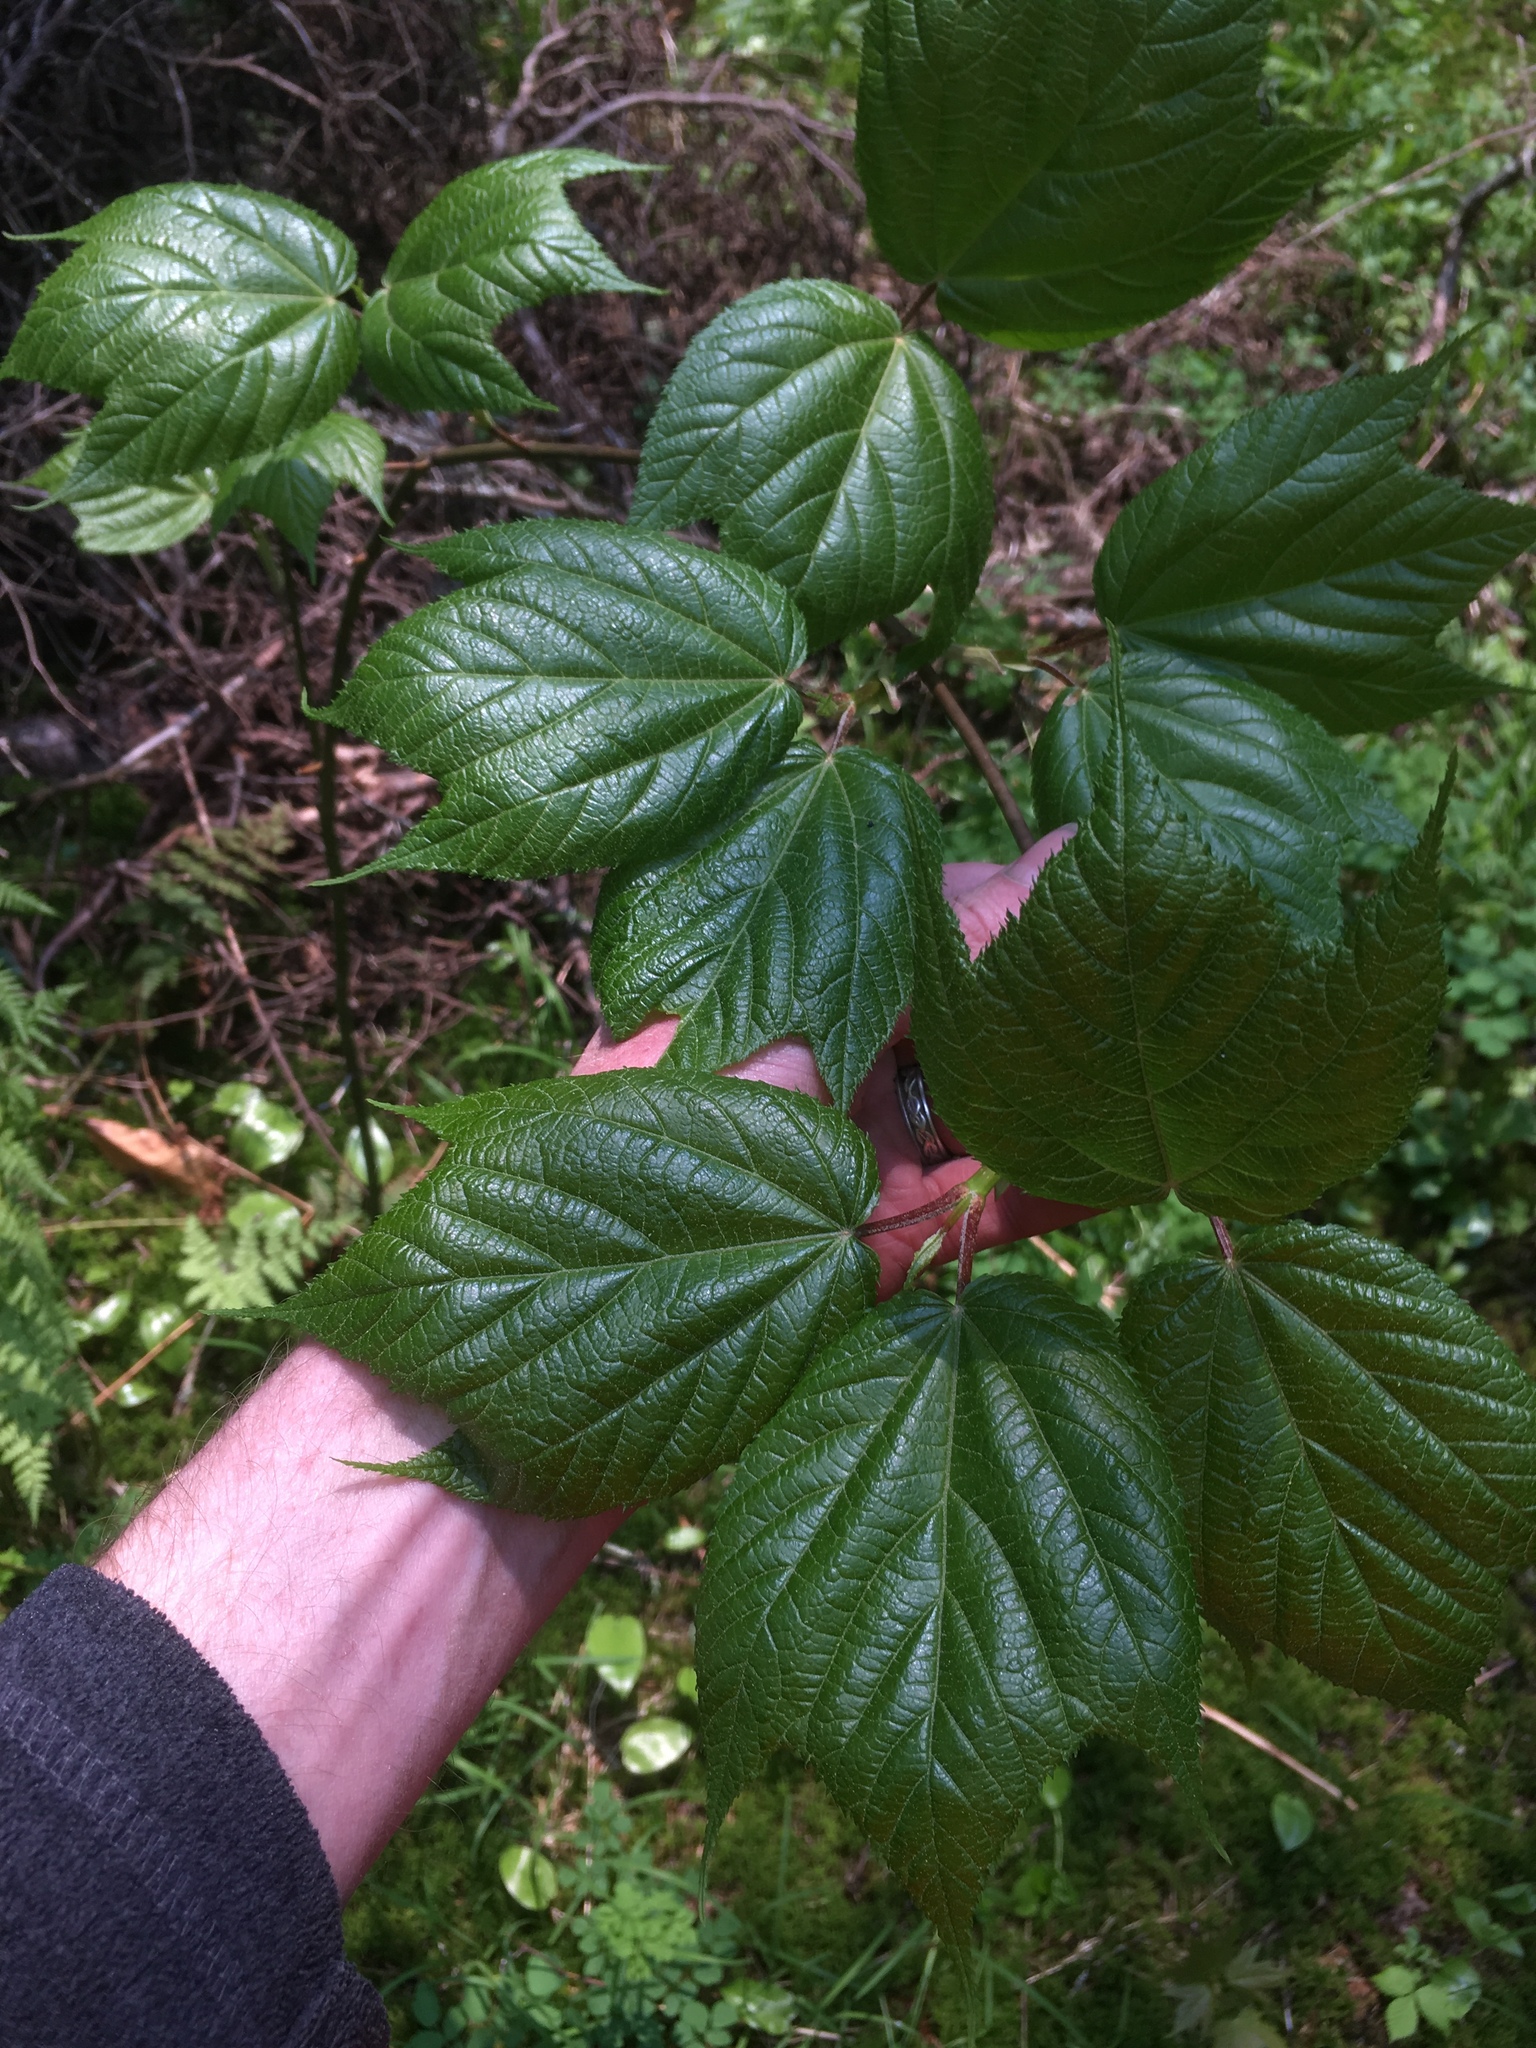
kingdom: Plantae
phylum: Tracheophyta
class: Magnoliopsida
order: Sapindales
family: Sapindaceae
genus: Acer
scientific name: Acer pensylvanicum
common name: Moosewood
